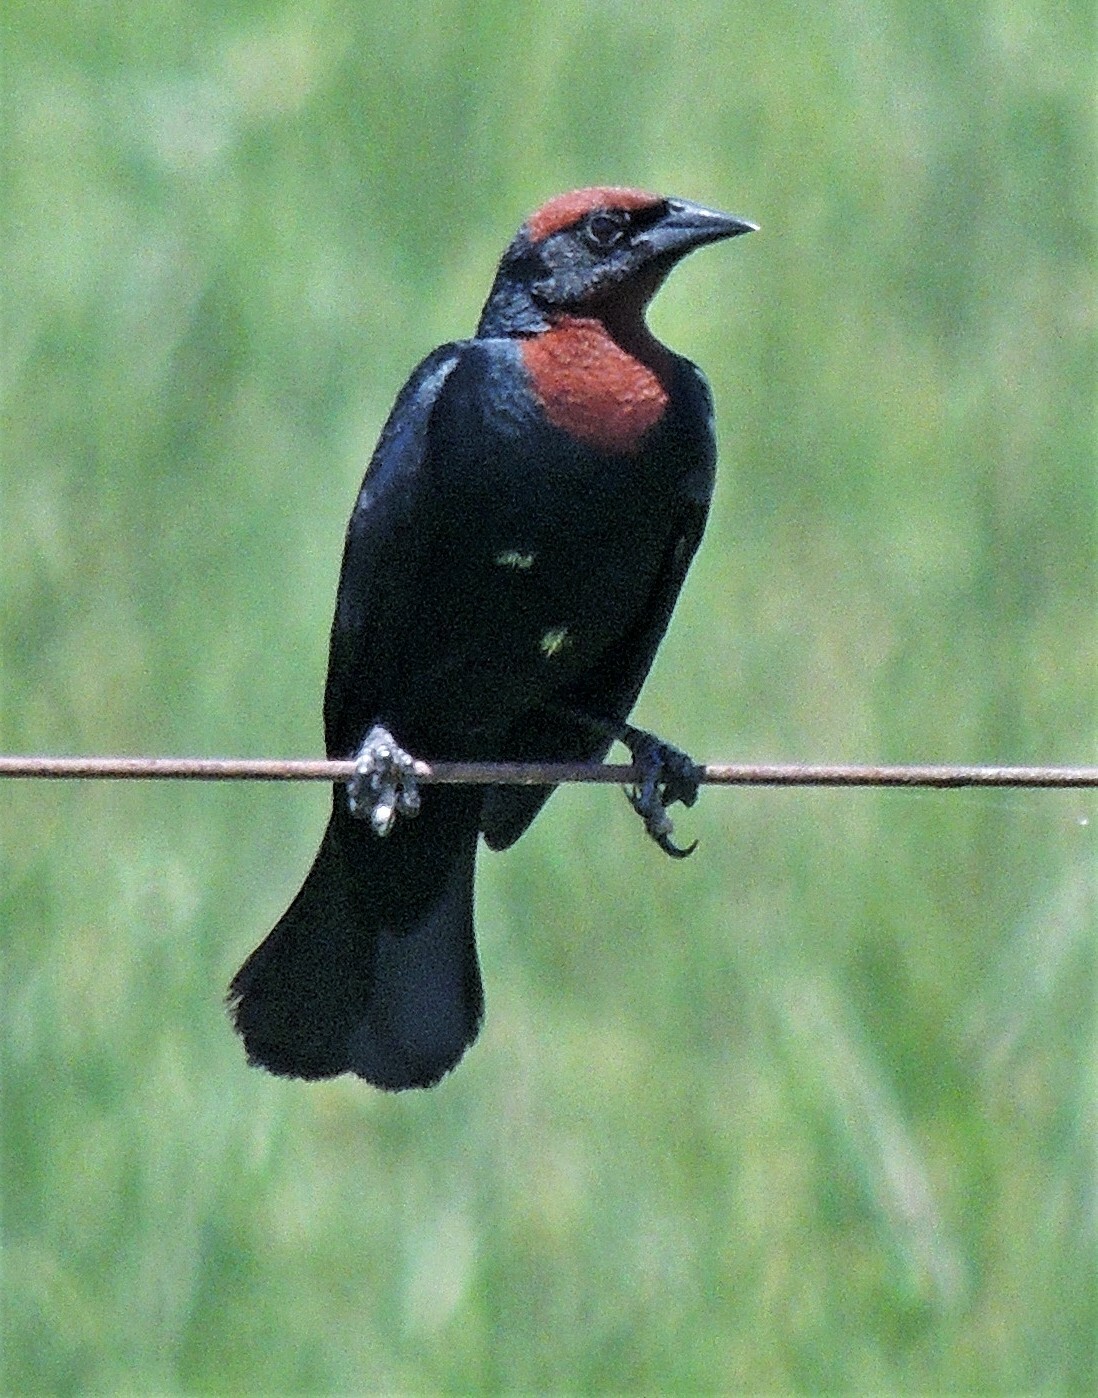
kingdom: Animalia
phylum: Chordata
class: Aves
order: Passeriformes
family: Icteridae
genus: Chrysomus
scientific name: Chrysomus ruficapillus
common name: Chestnut-capped blackbird
